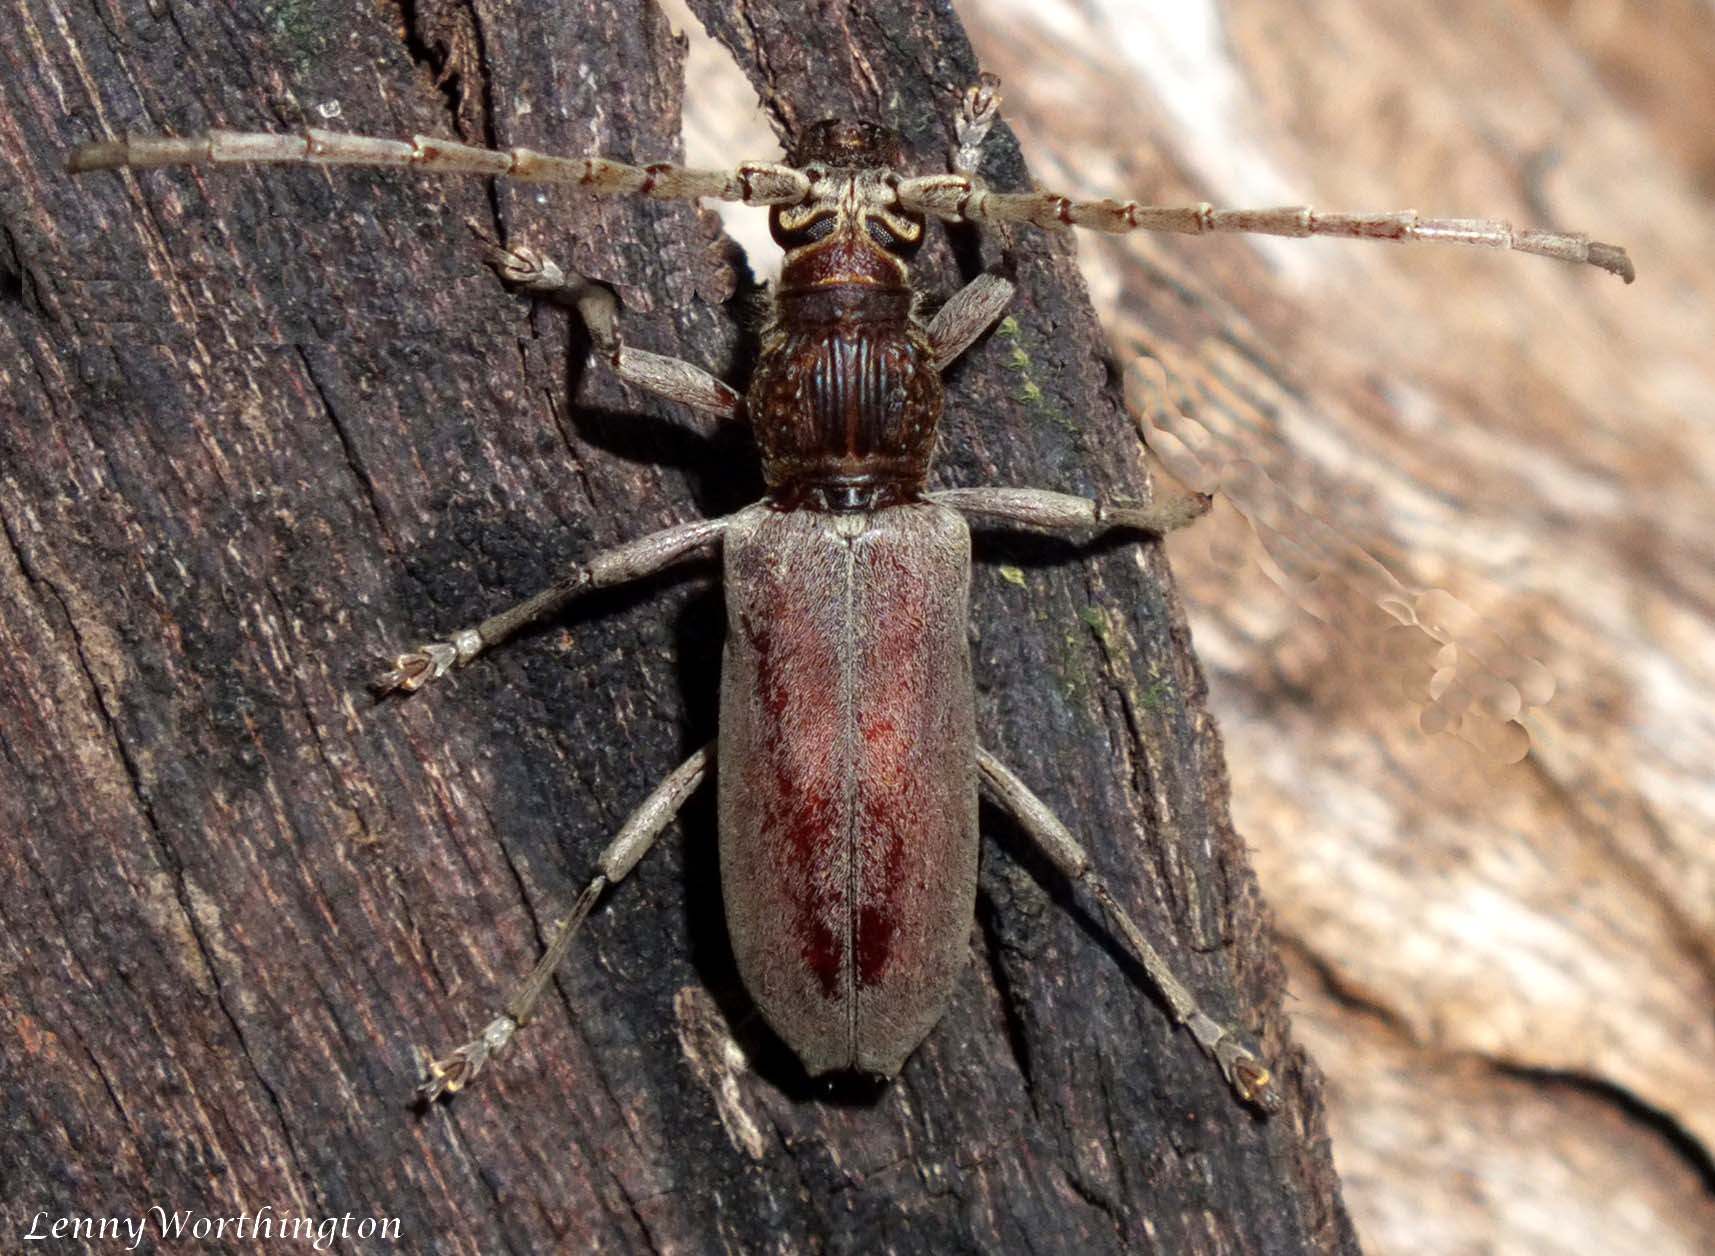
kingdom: Animalia
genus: Pascoetrephus
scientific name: Pascoetrephus
